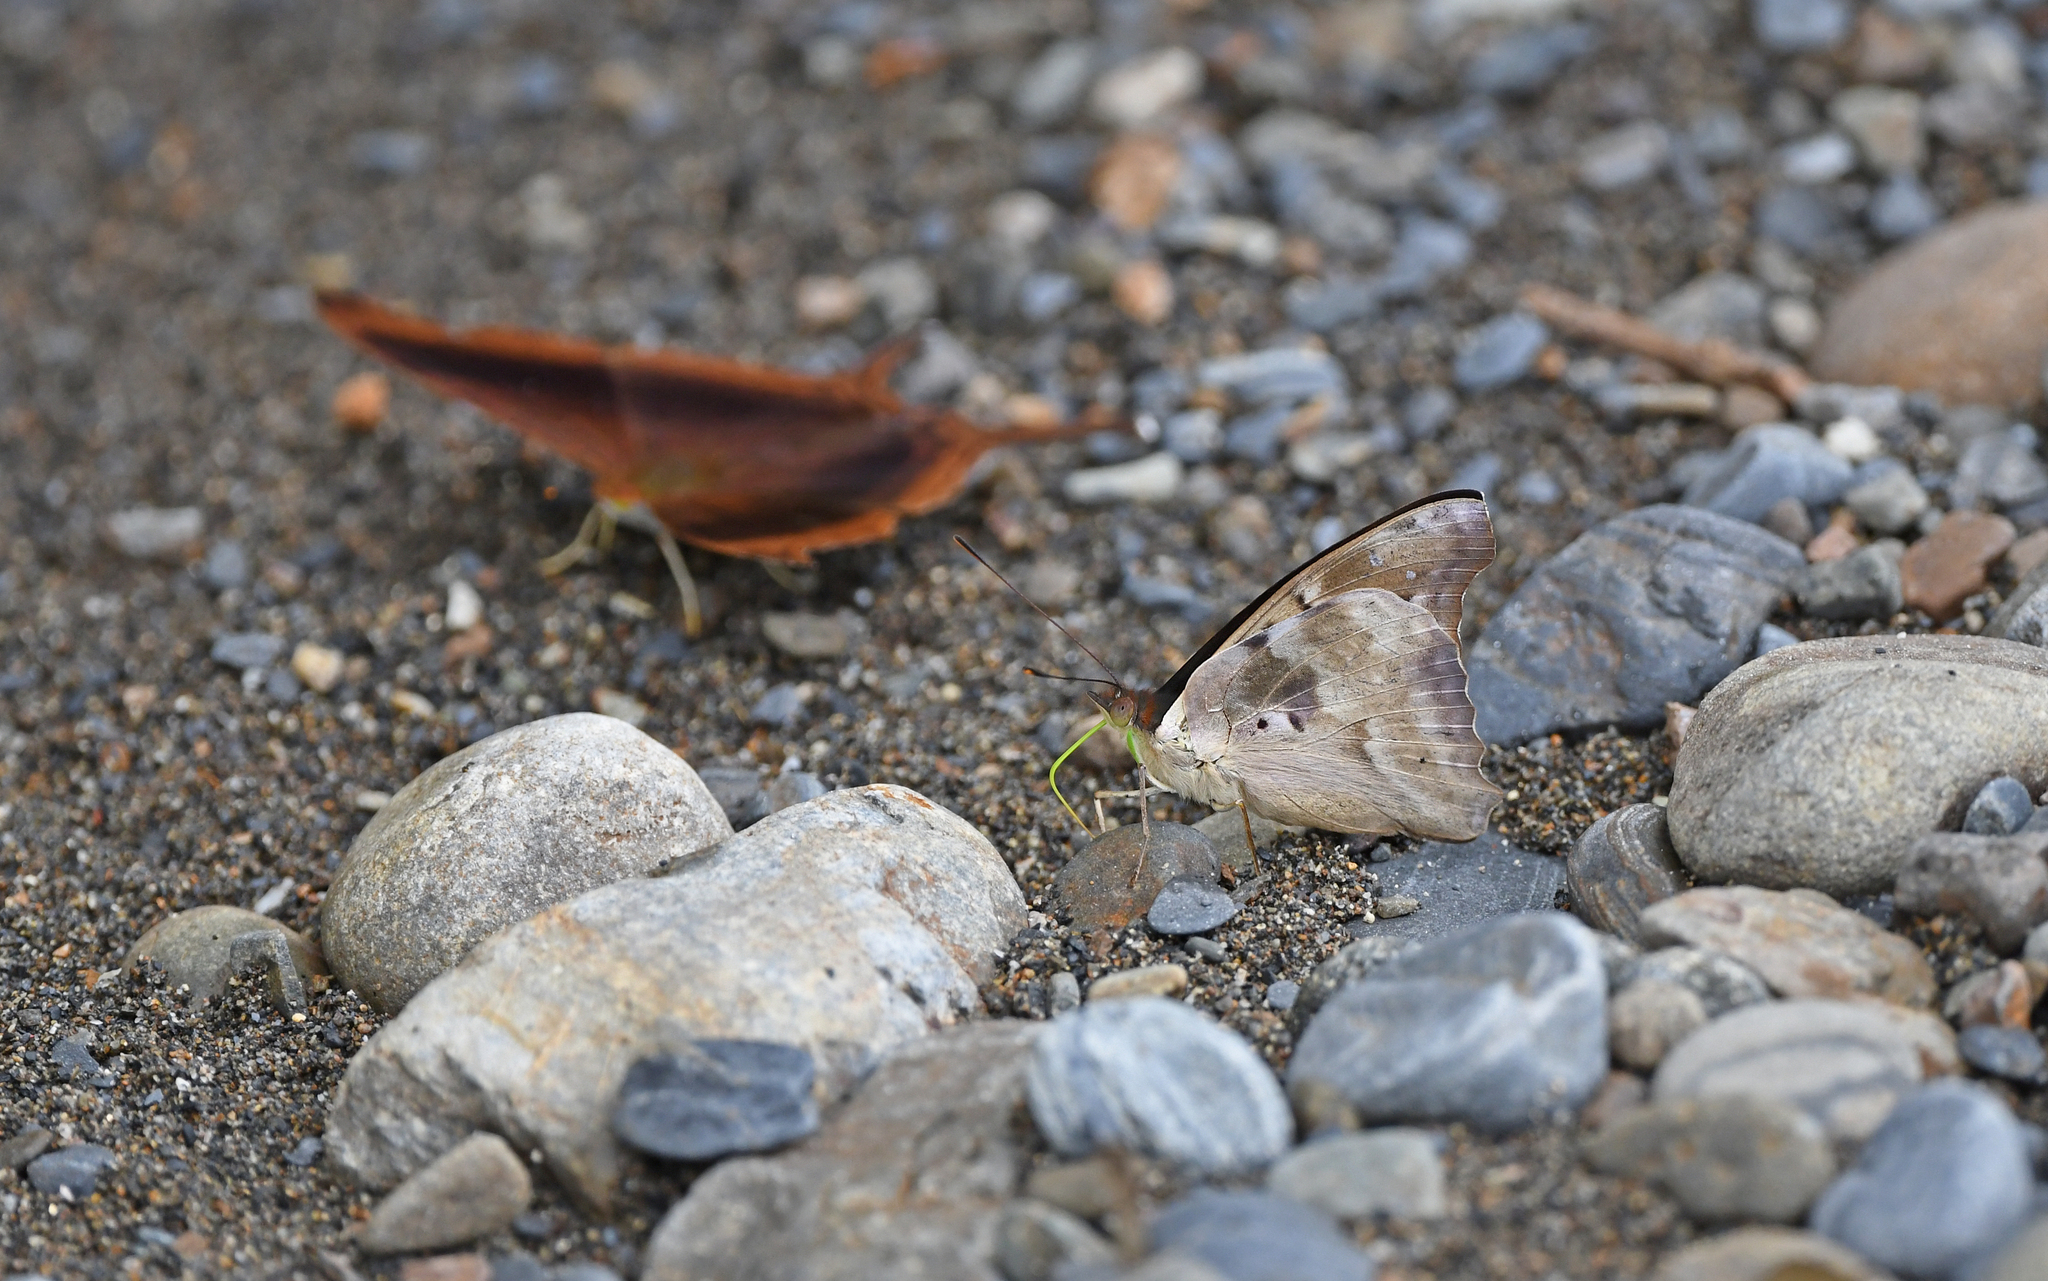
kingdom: Animalia
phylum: Arthropoda
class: Insecta
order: Lepidoptera
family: Nymphalidae
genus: Doxocopa
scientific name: Doxocopa cyane
